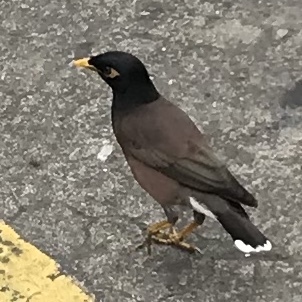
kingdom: Animalia
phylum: Chordata
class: Aves
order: Passeriformes
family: Sturnidae
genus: Acridotheres
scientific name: Acridotheres tristis
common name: Common myna
